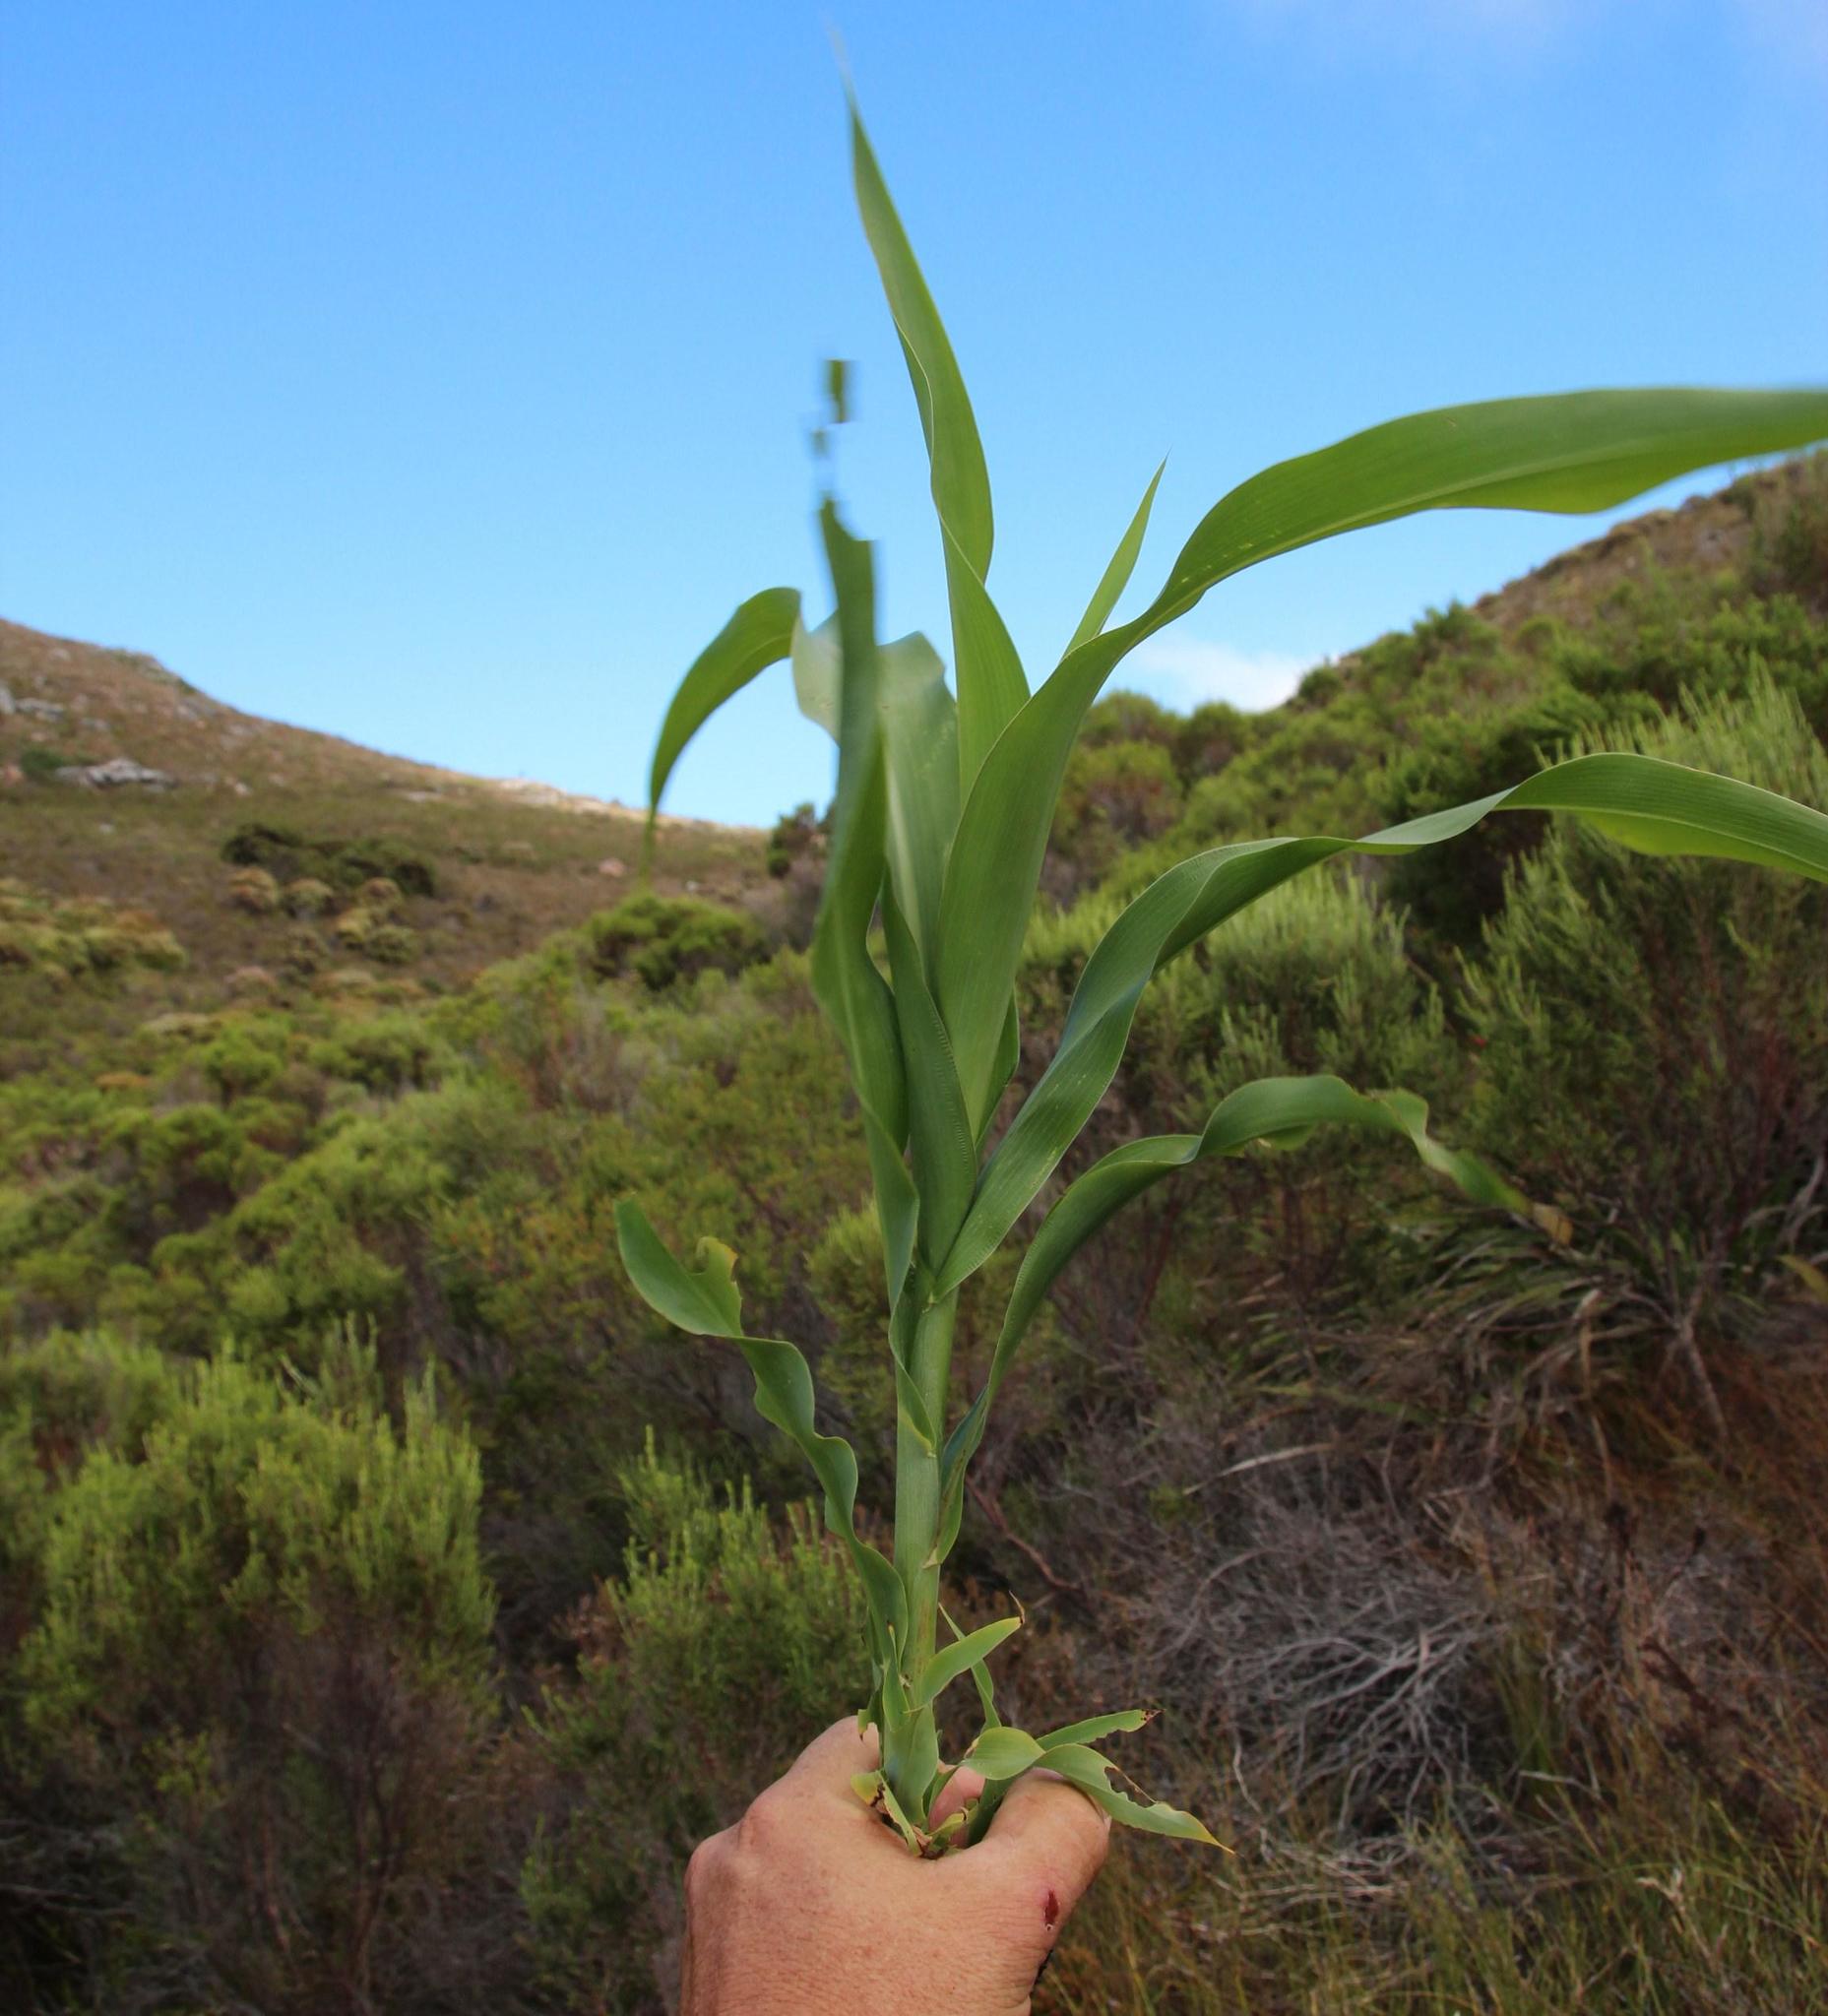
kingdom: Plantae
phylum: Tracheophyta
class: Liliopsida
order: Poales
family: Poaceae
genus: Zea
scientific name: Zea mays
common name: Maize
